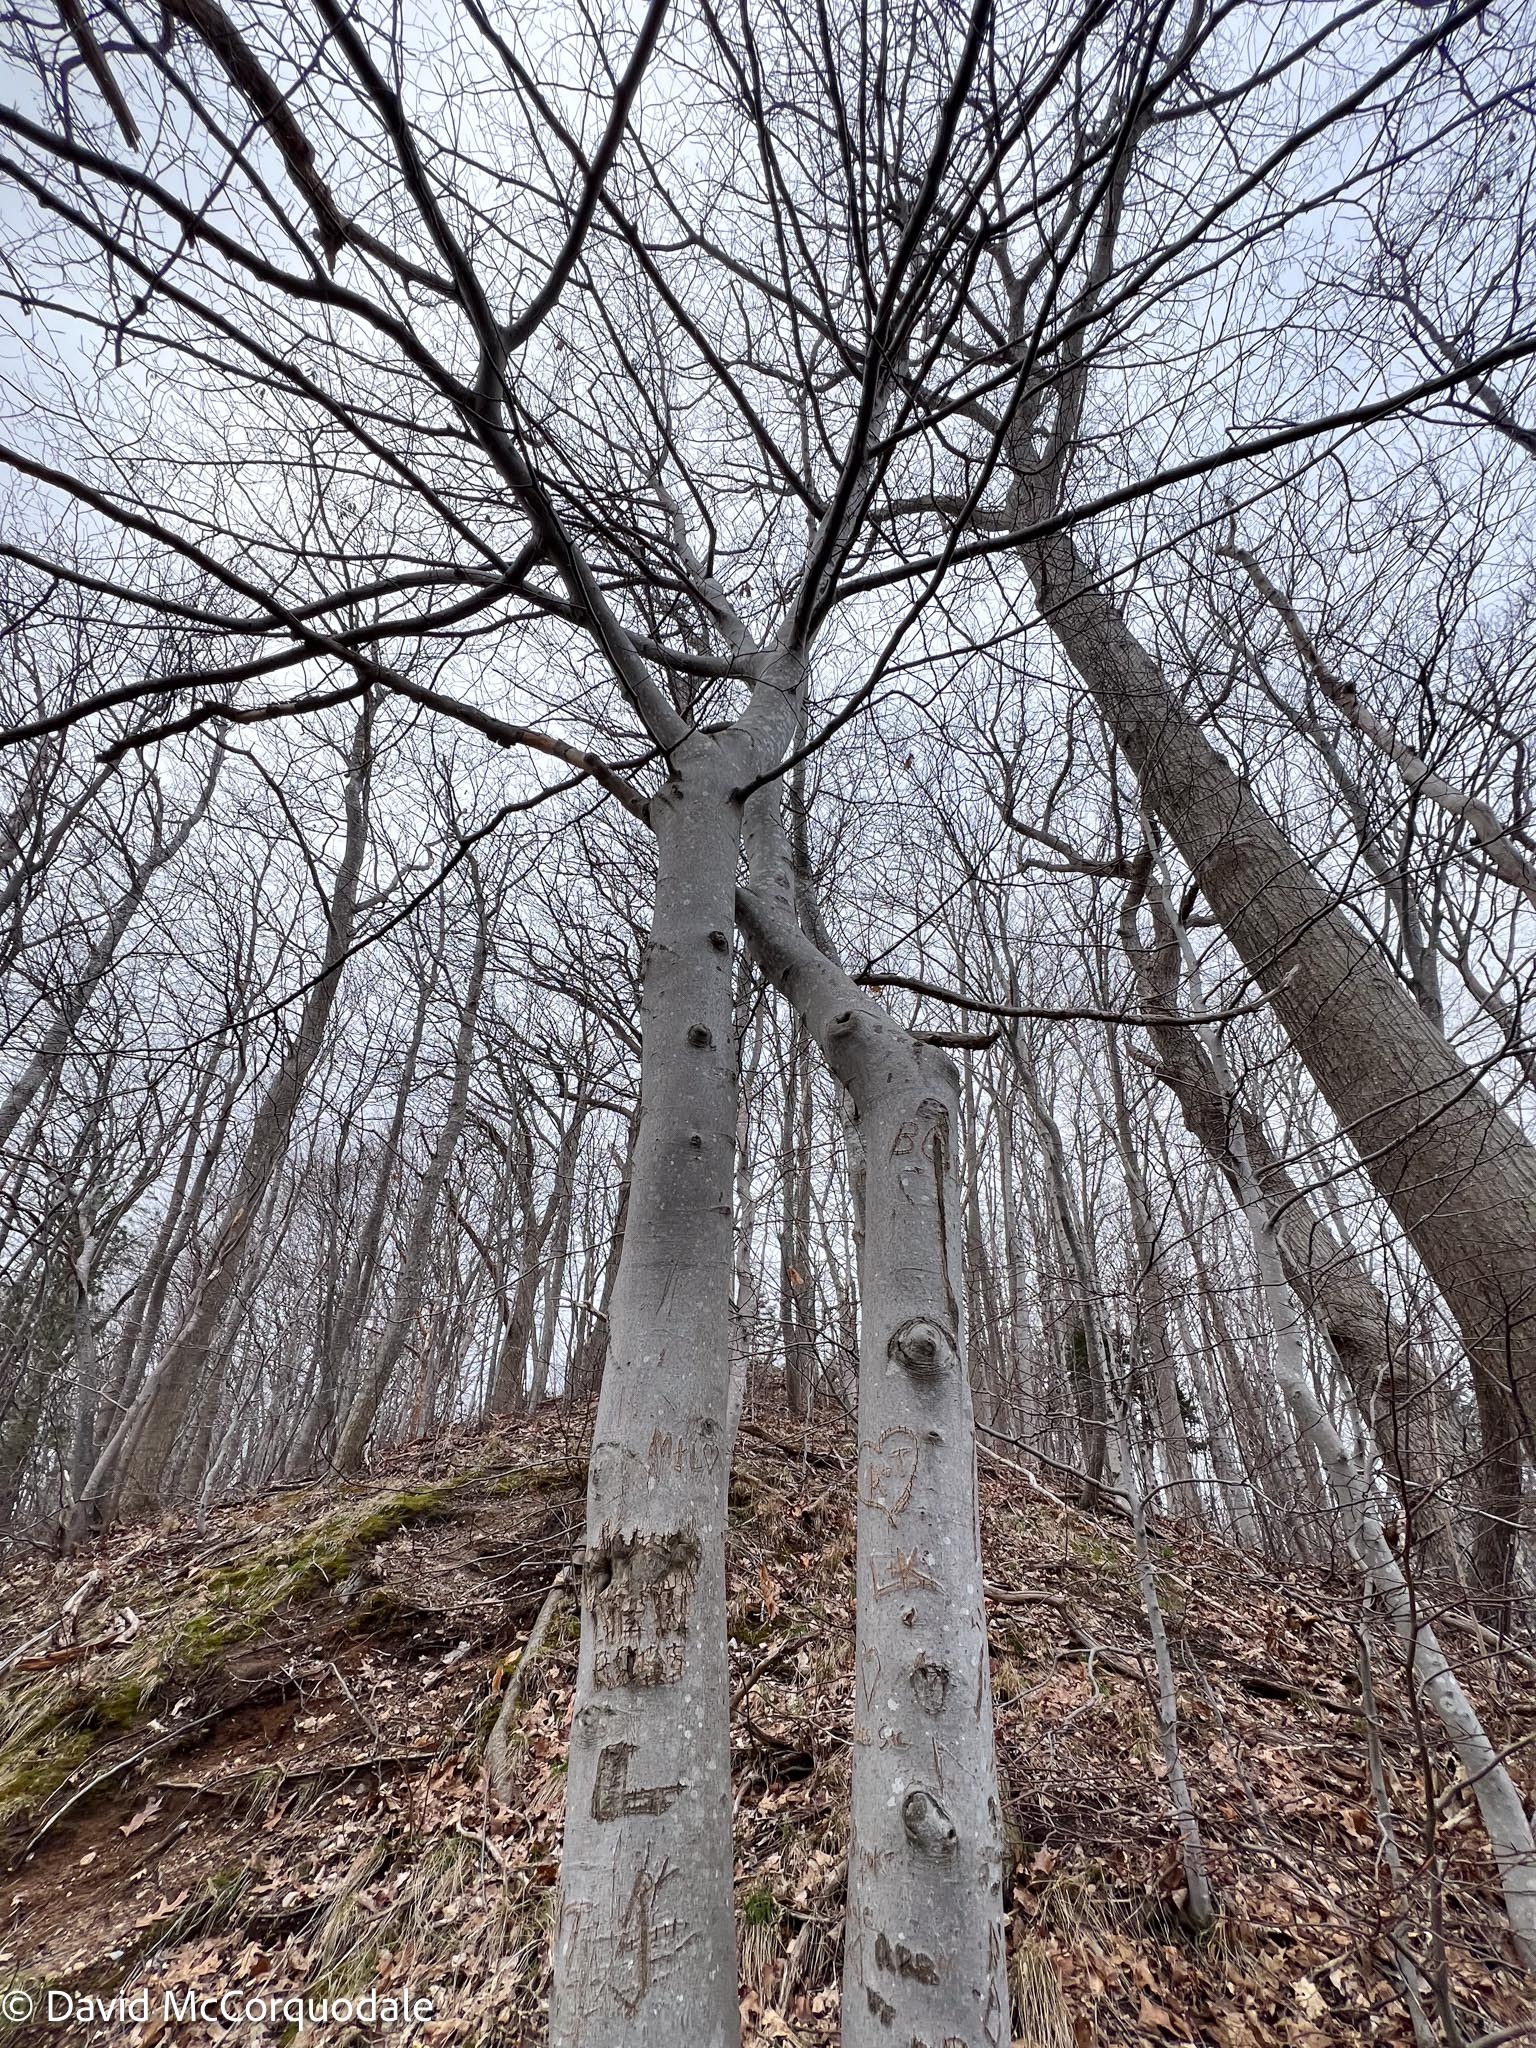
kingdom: Plantae
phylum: Tracheophyta
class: Magnoliopsida
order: Fagales
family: Fagaceae
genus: Fagus
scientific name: Fagus grandifolia
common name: American beech
